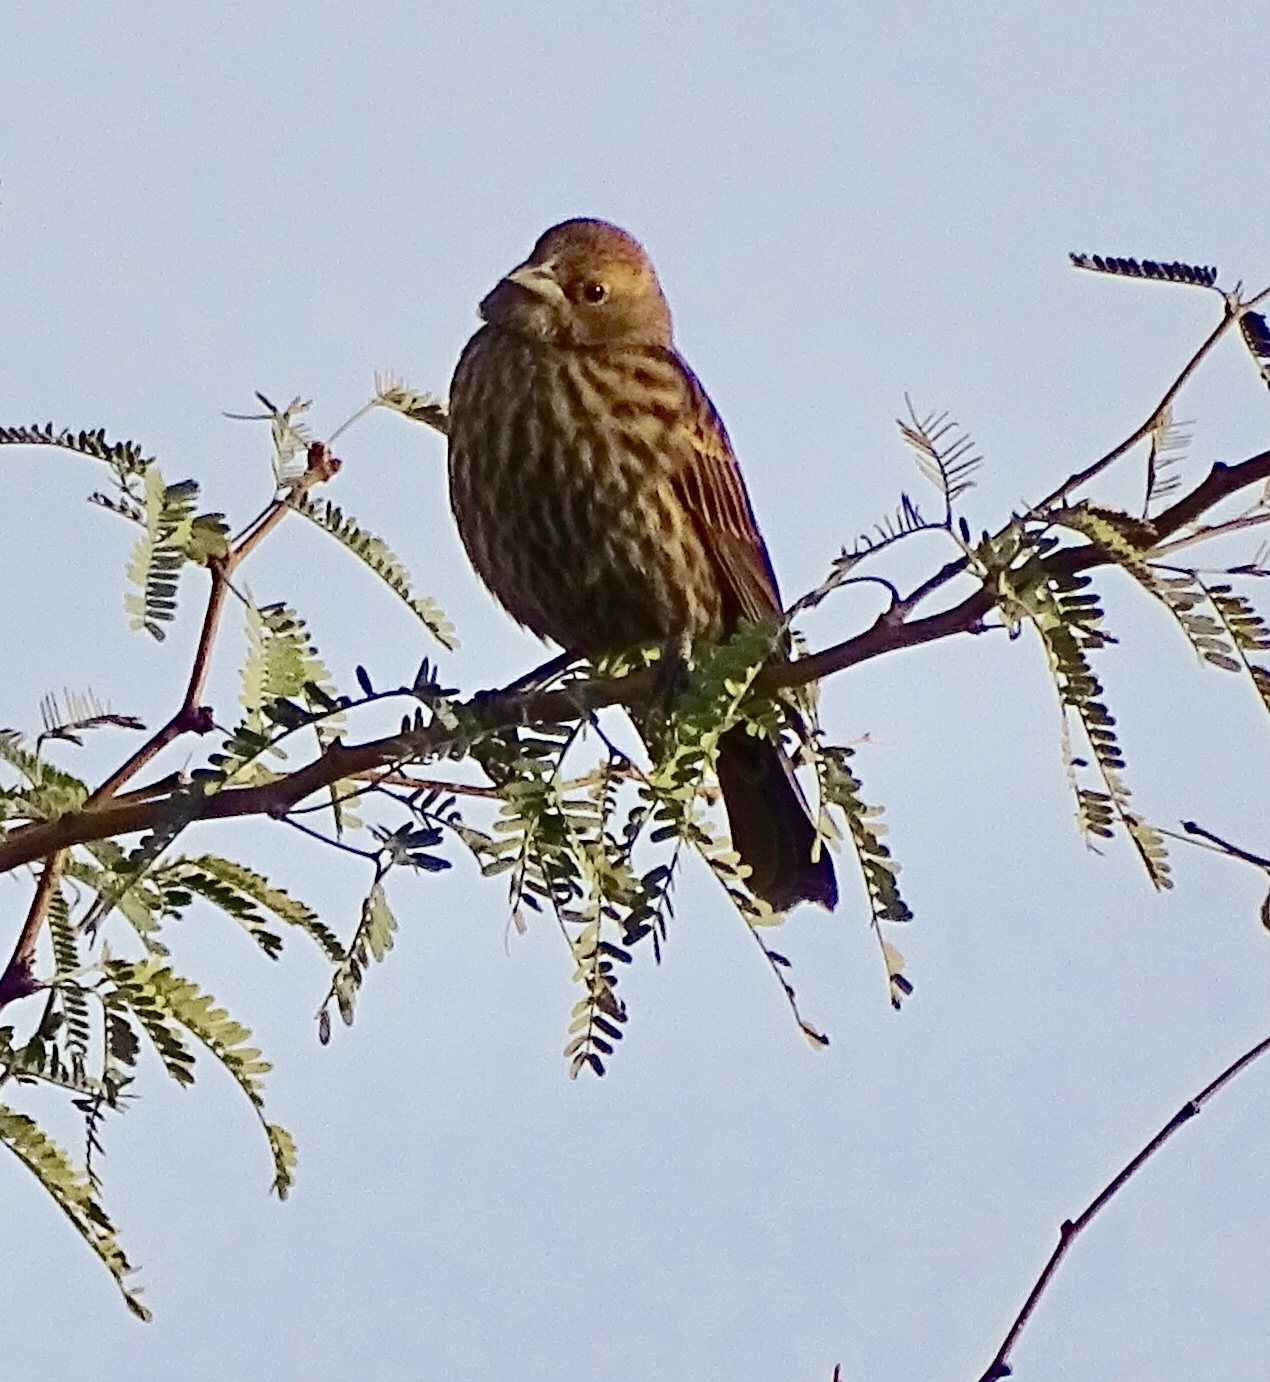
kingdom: Animalia
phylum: Chordata
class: Aves
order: Passeriformes
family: Icteridae
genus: Agelaius
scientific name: Agelaius phoeniceus
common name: Red-winged blackbird
